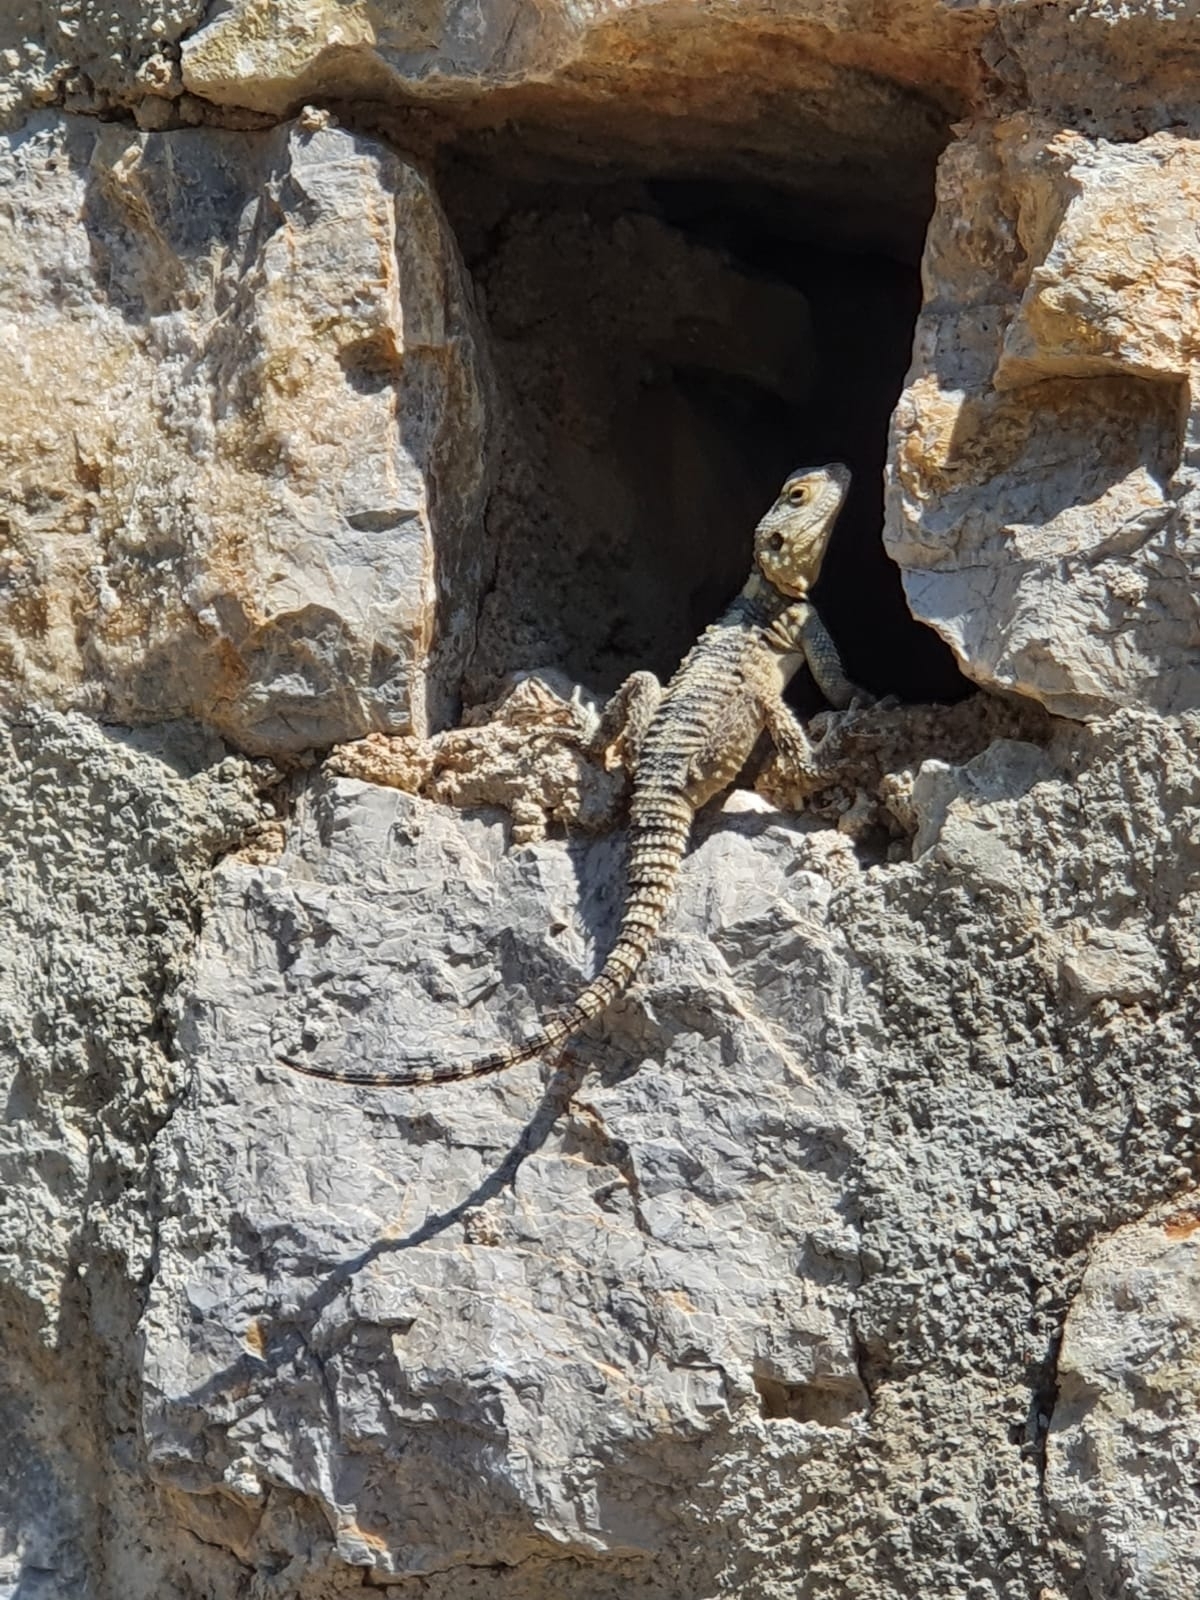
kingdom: Animalia
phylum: Chordata
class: Squamata
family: Agamidae
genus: Stellagama
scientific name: Stellagama stellio
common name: Starred agama
